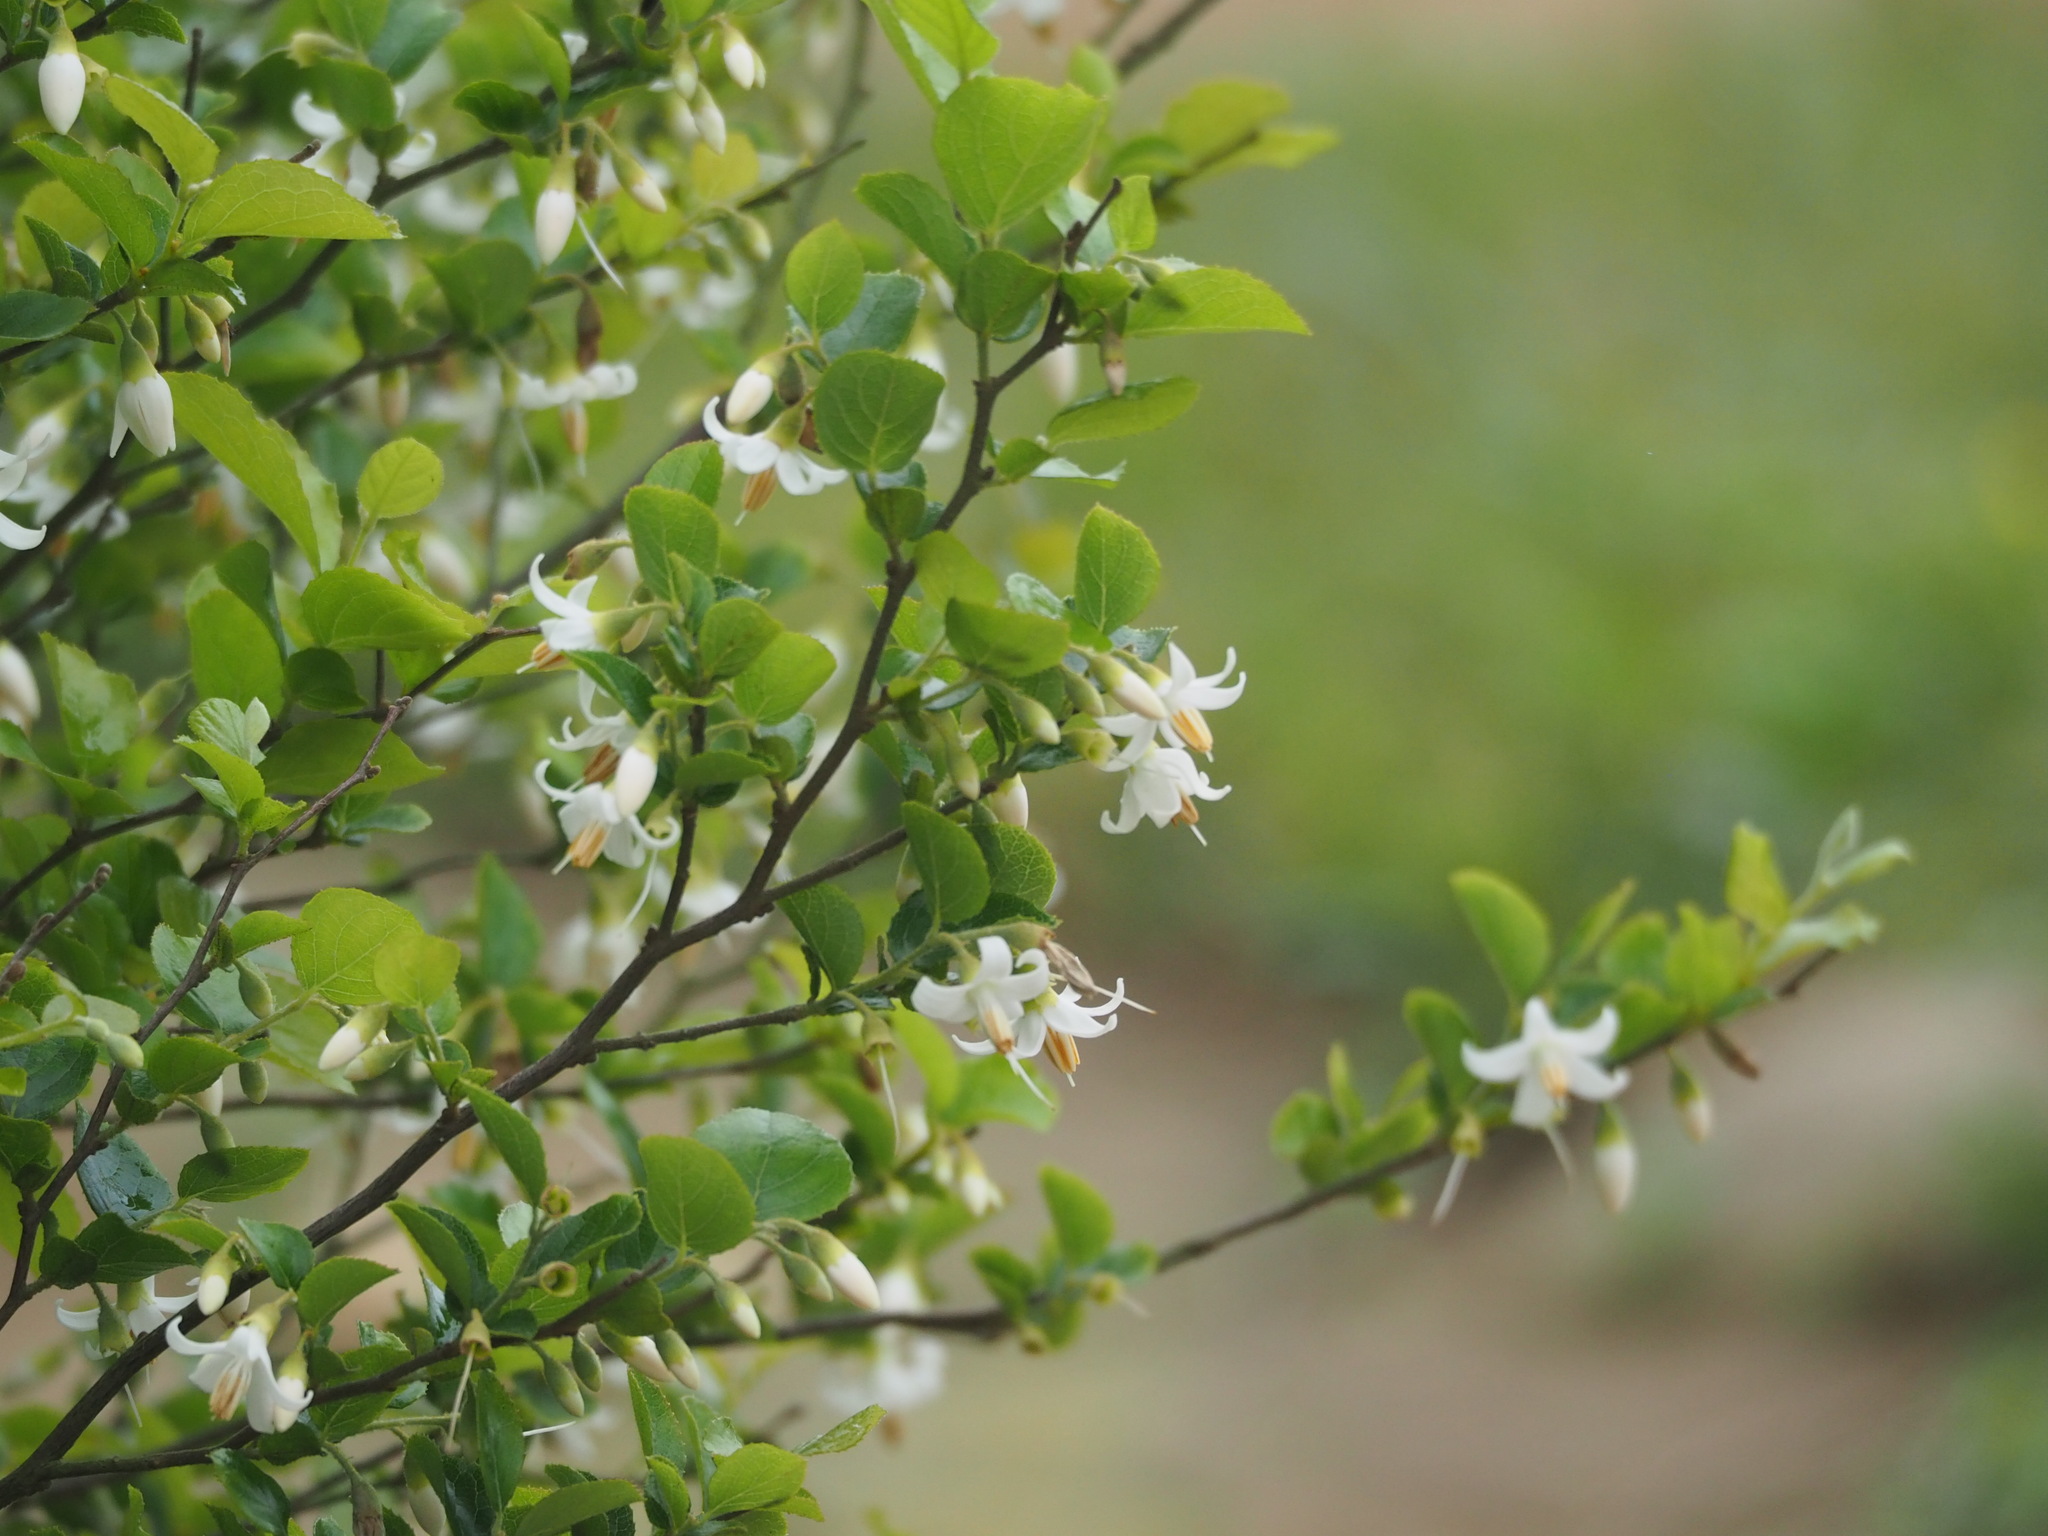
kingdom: Plantae
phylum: Tracheophyta
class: Magnoliopsida
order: Ericales
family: Styracaceae
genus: Styrax
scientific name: Styrax faberi
